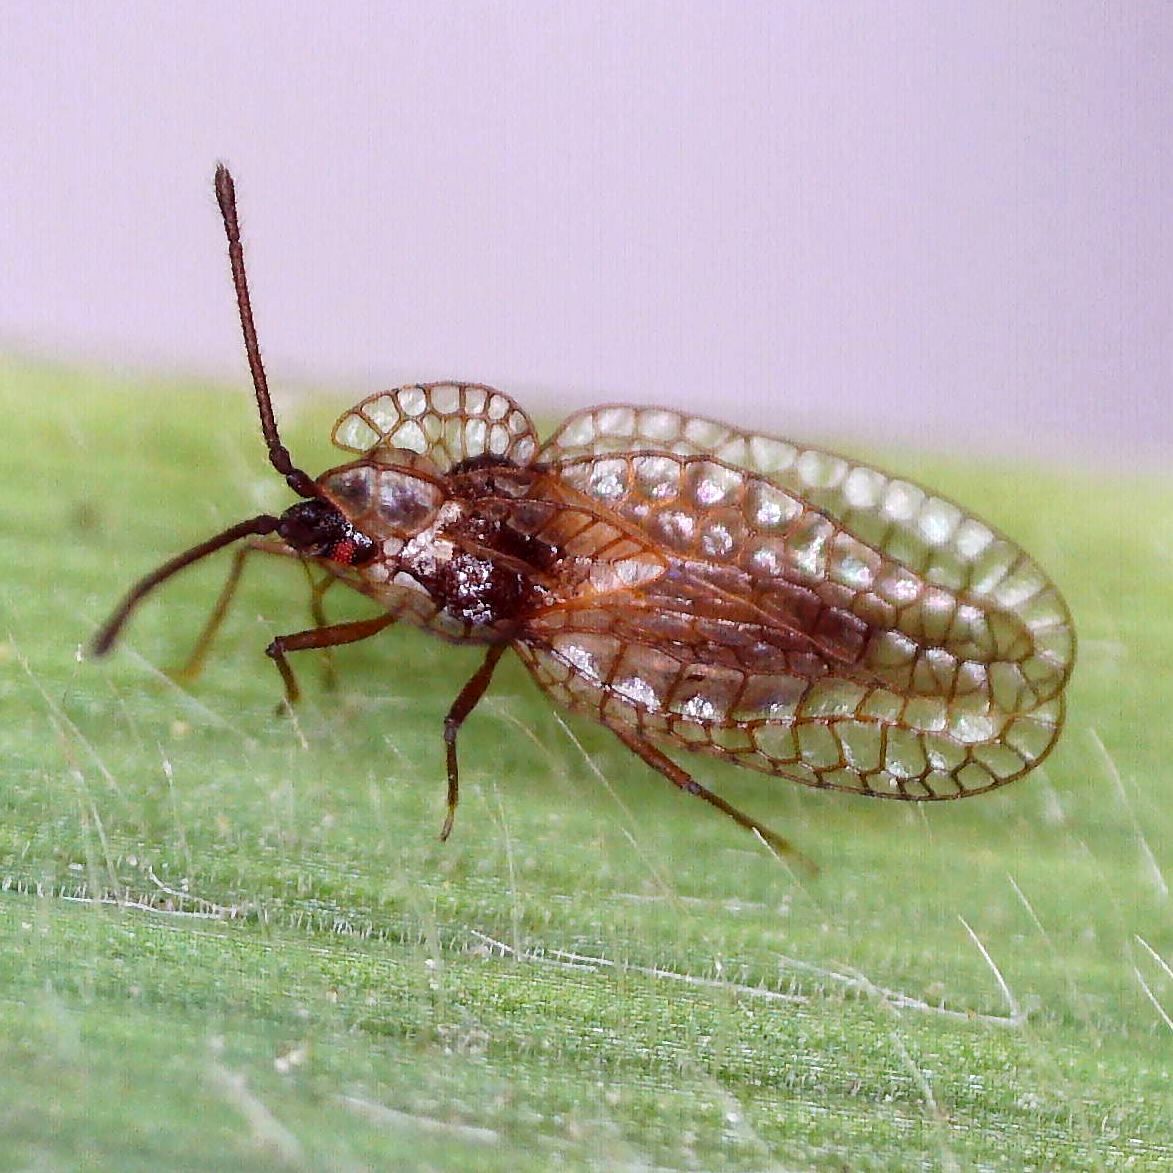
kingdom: Animalia
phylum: Arthropoda
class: Insecta
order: Hemiptera
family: Tingidae
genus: Derephysia
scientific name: Derephysia foliacea
